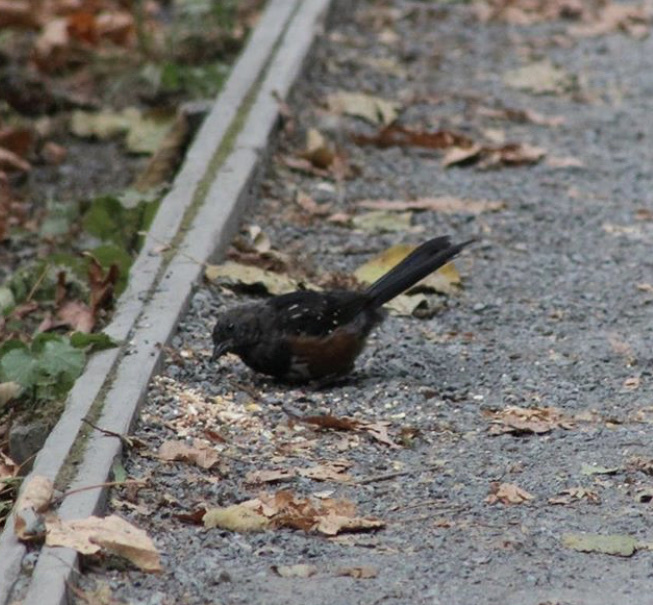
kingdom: Animalia
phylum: Chordata
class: Aves
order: Passeriformes
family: Passerellidae
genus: Pipilo
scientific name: Pipilo maculatus
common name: Spotted towhee
